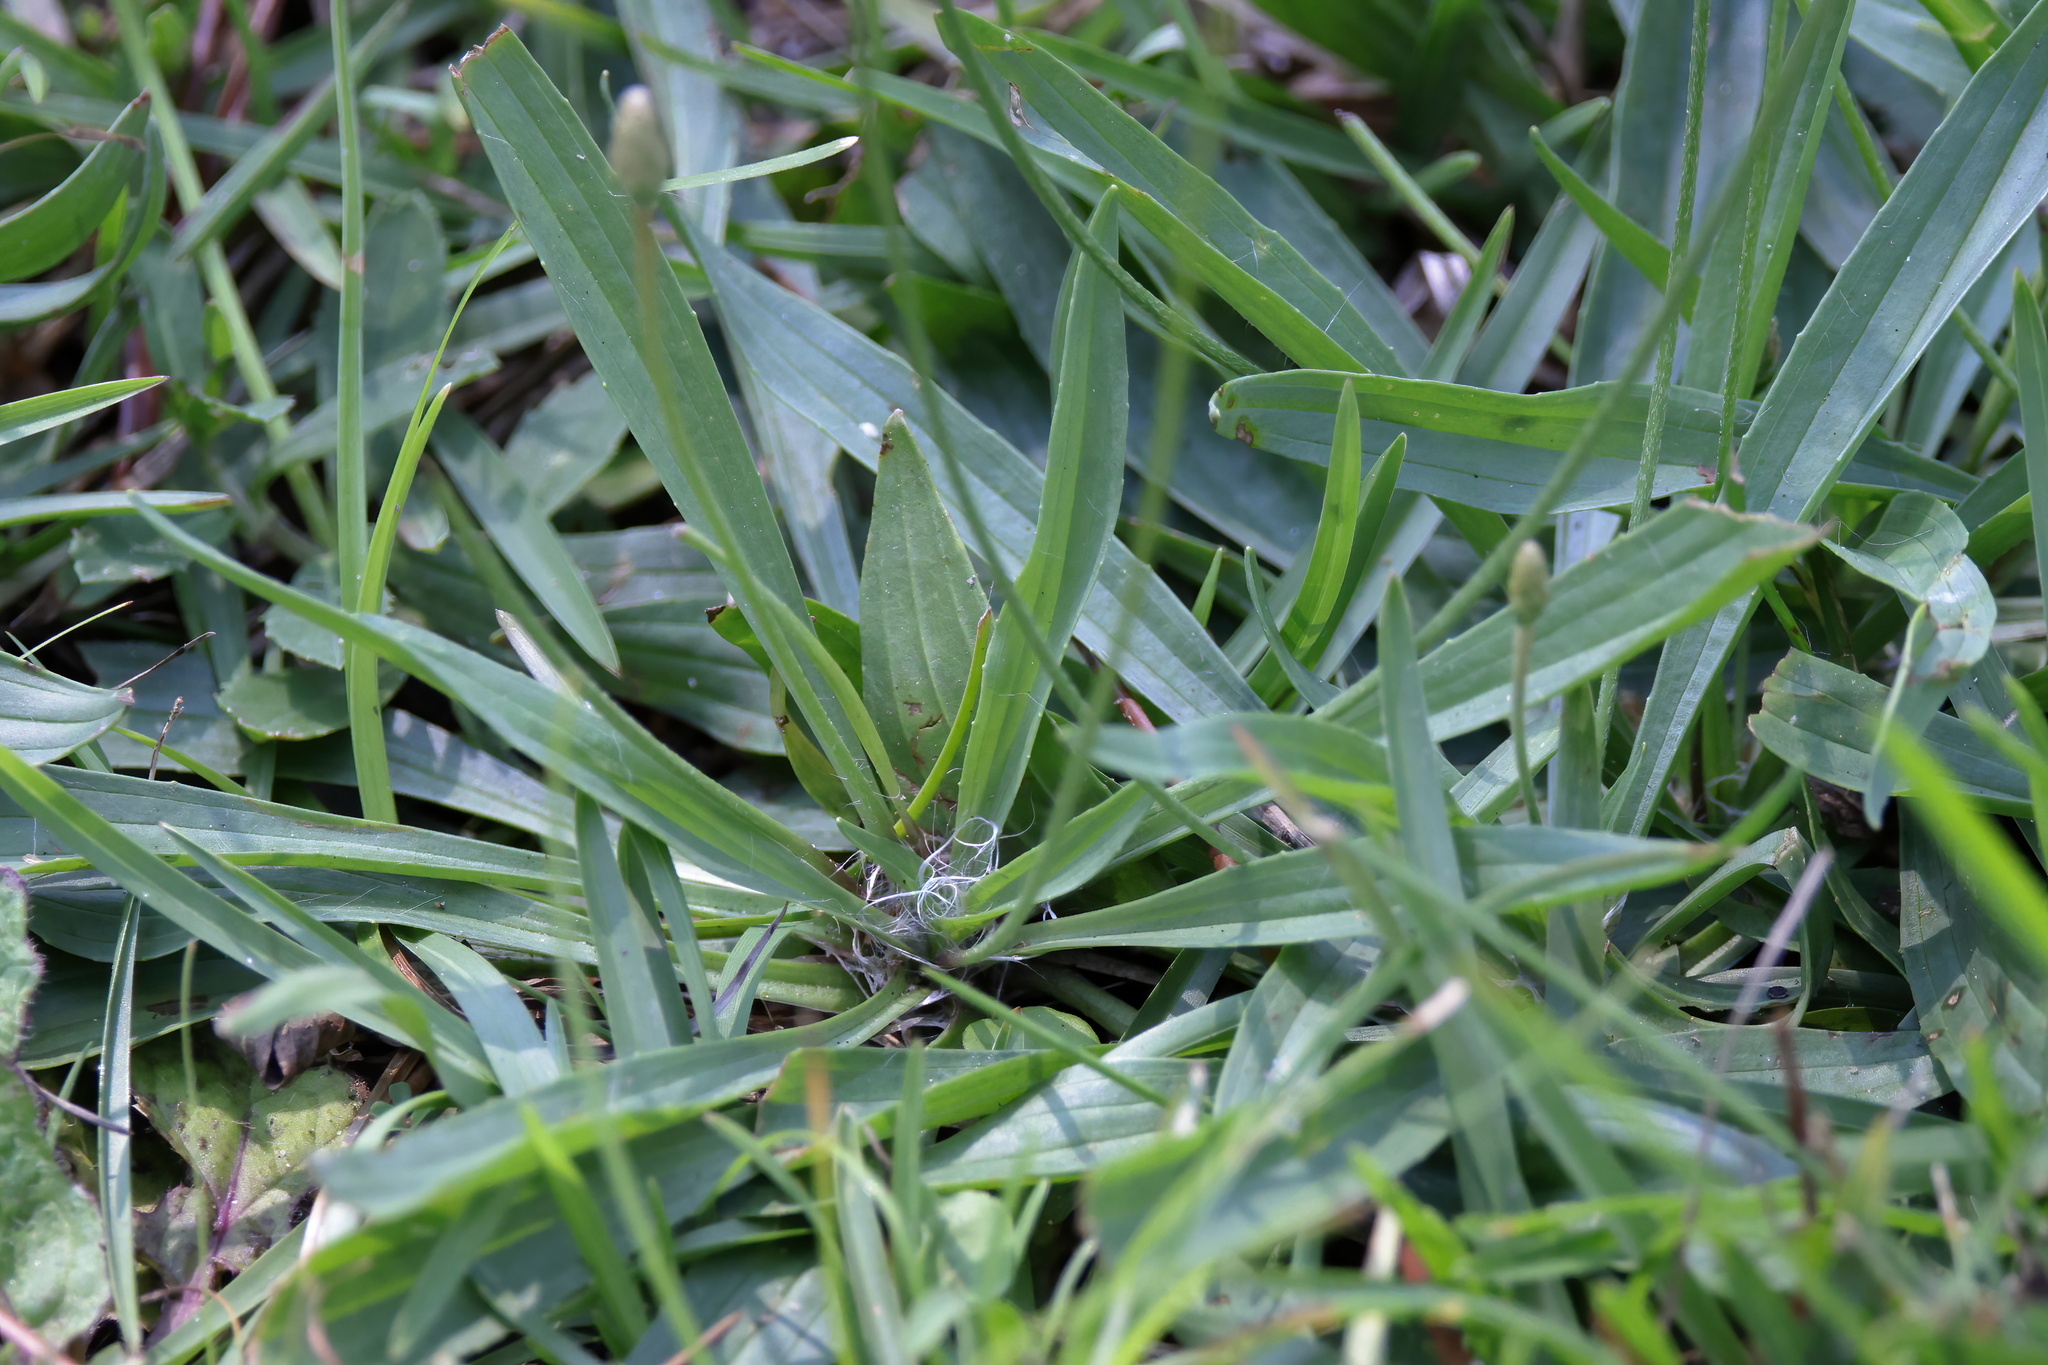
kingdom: Plantae
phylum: Tracheophyta
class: Magnoliopsida
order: Lamiales
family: Plantaginaceae
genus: Plantago
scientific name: Plantago lanceolata
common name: Ribwort plantain
